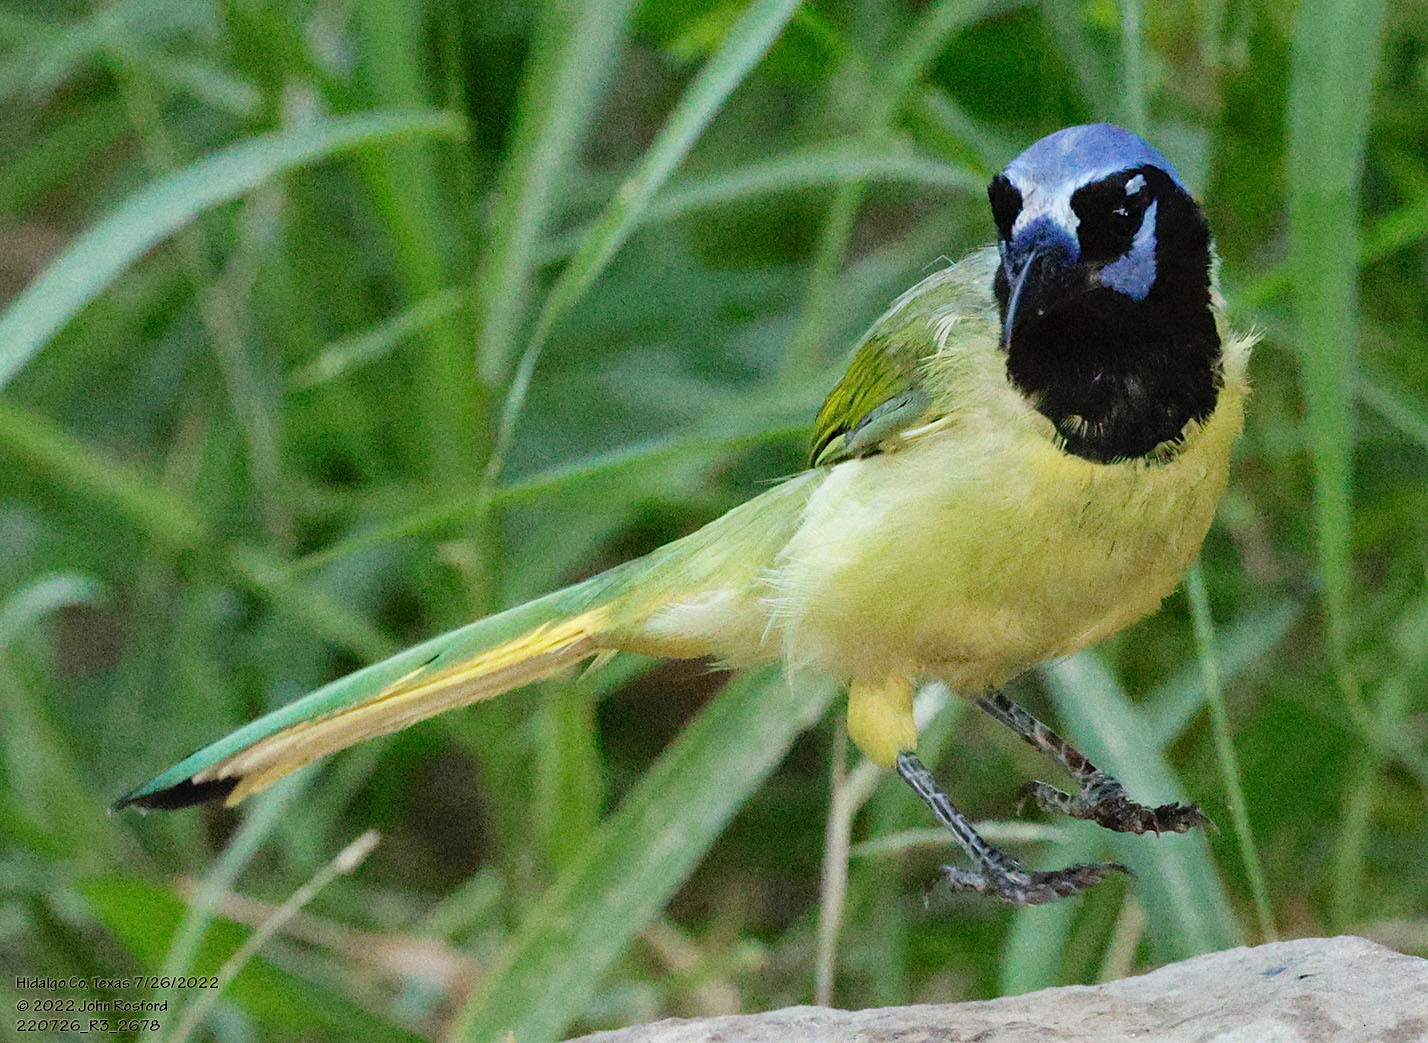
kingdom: Animalia
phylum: Chordata
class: Aves
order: Passeriformes
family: Corvidae
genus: Cyanocorax
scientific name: Cyanocorax yncas
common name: Green jay
